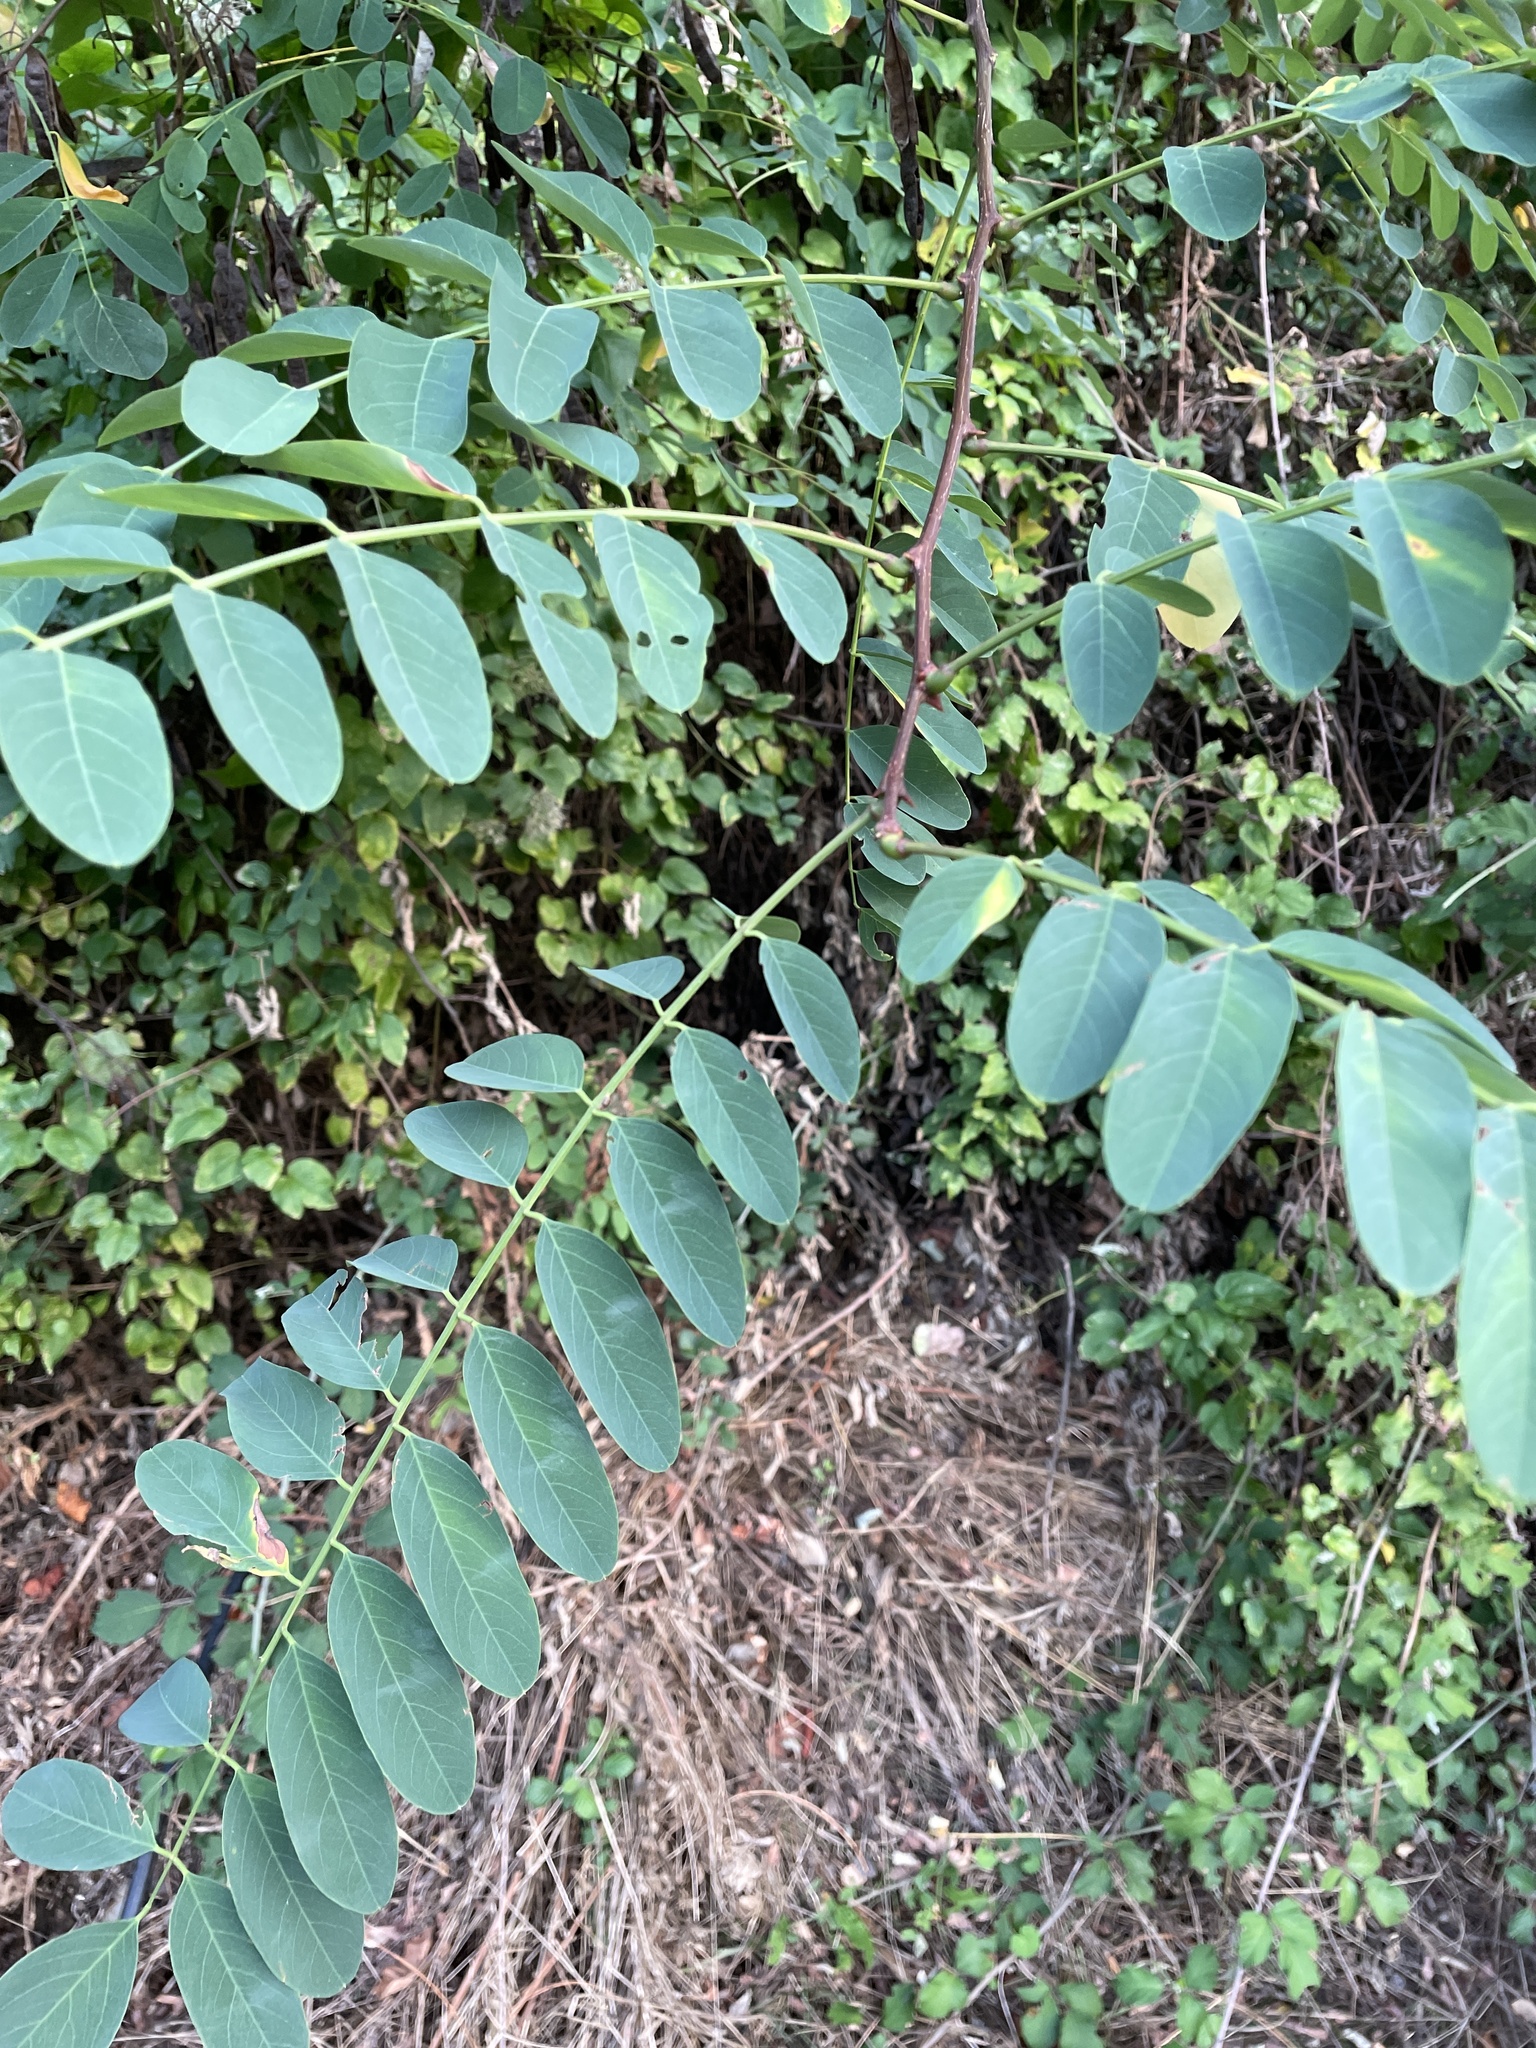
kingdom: Plantae
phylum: Tracheophyta
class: Magnoliopsida
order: Fabales
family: Fabaceae
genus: Robinia
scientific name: Robinia pseudoacacia
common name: Black locust
